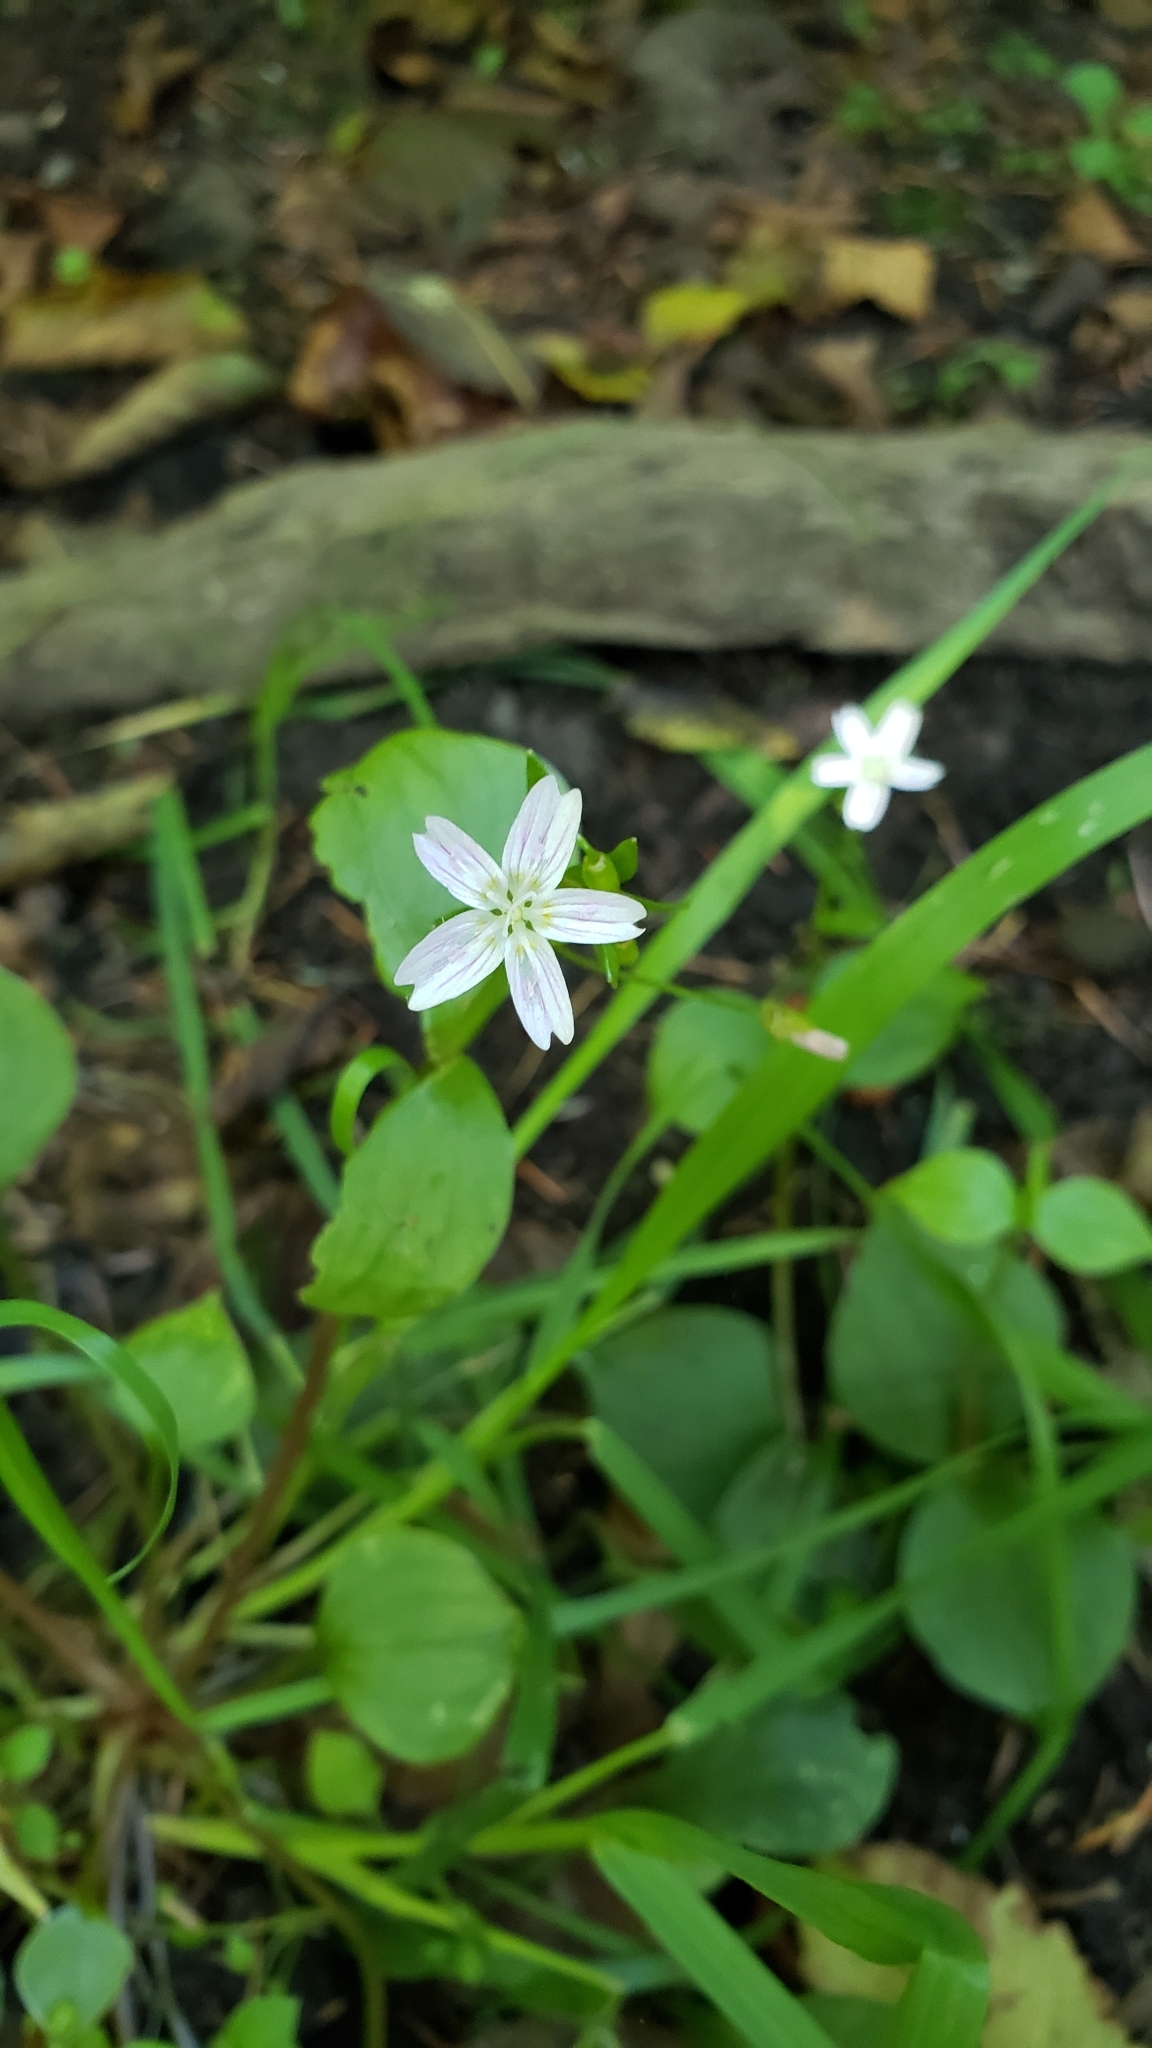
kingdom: Plantae
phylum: Tracheophyta
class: Magnoliopsida
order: Caryophyllales
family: Montiaceae
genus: Claytonia
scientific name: Claytonia sibirica
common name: Pink purslane
